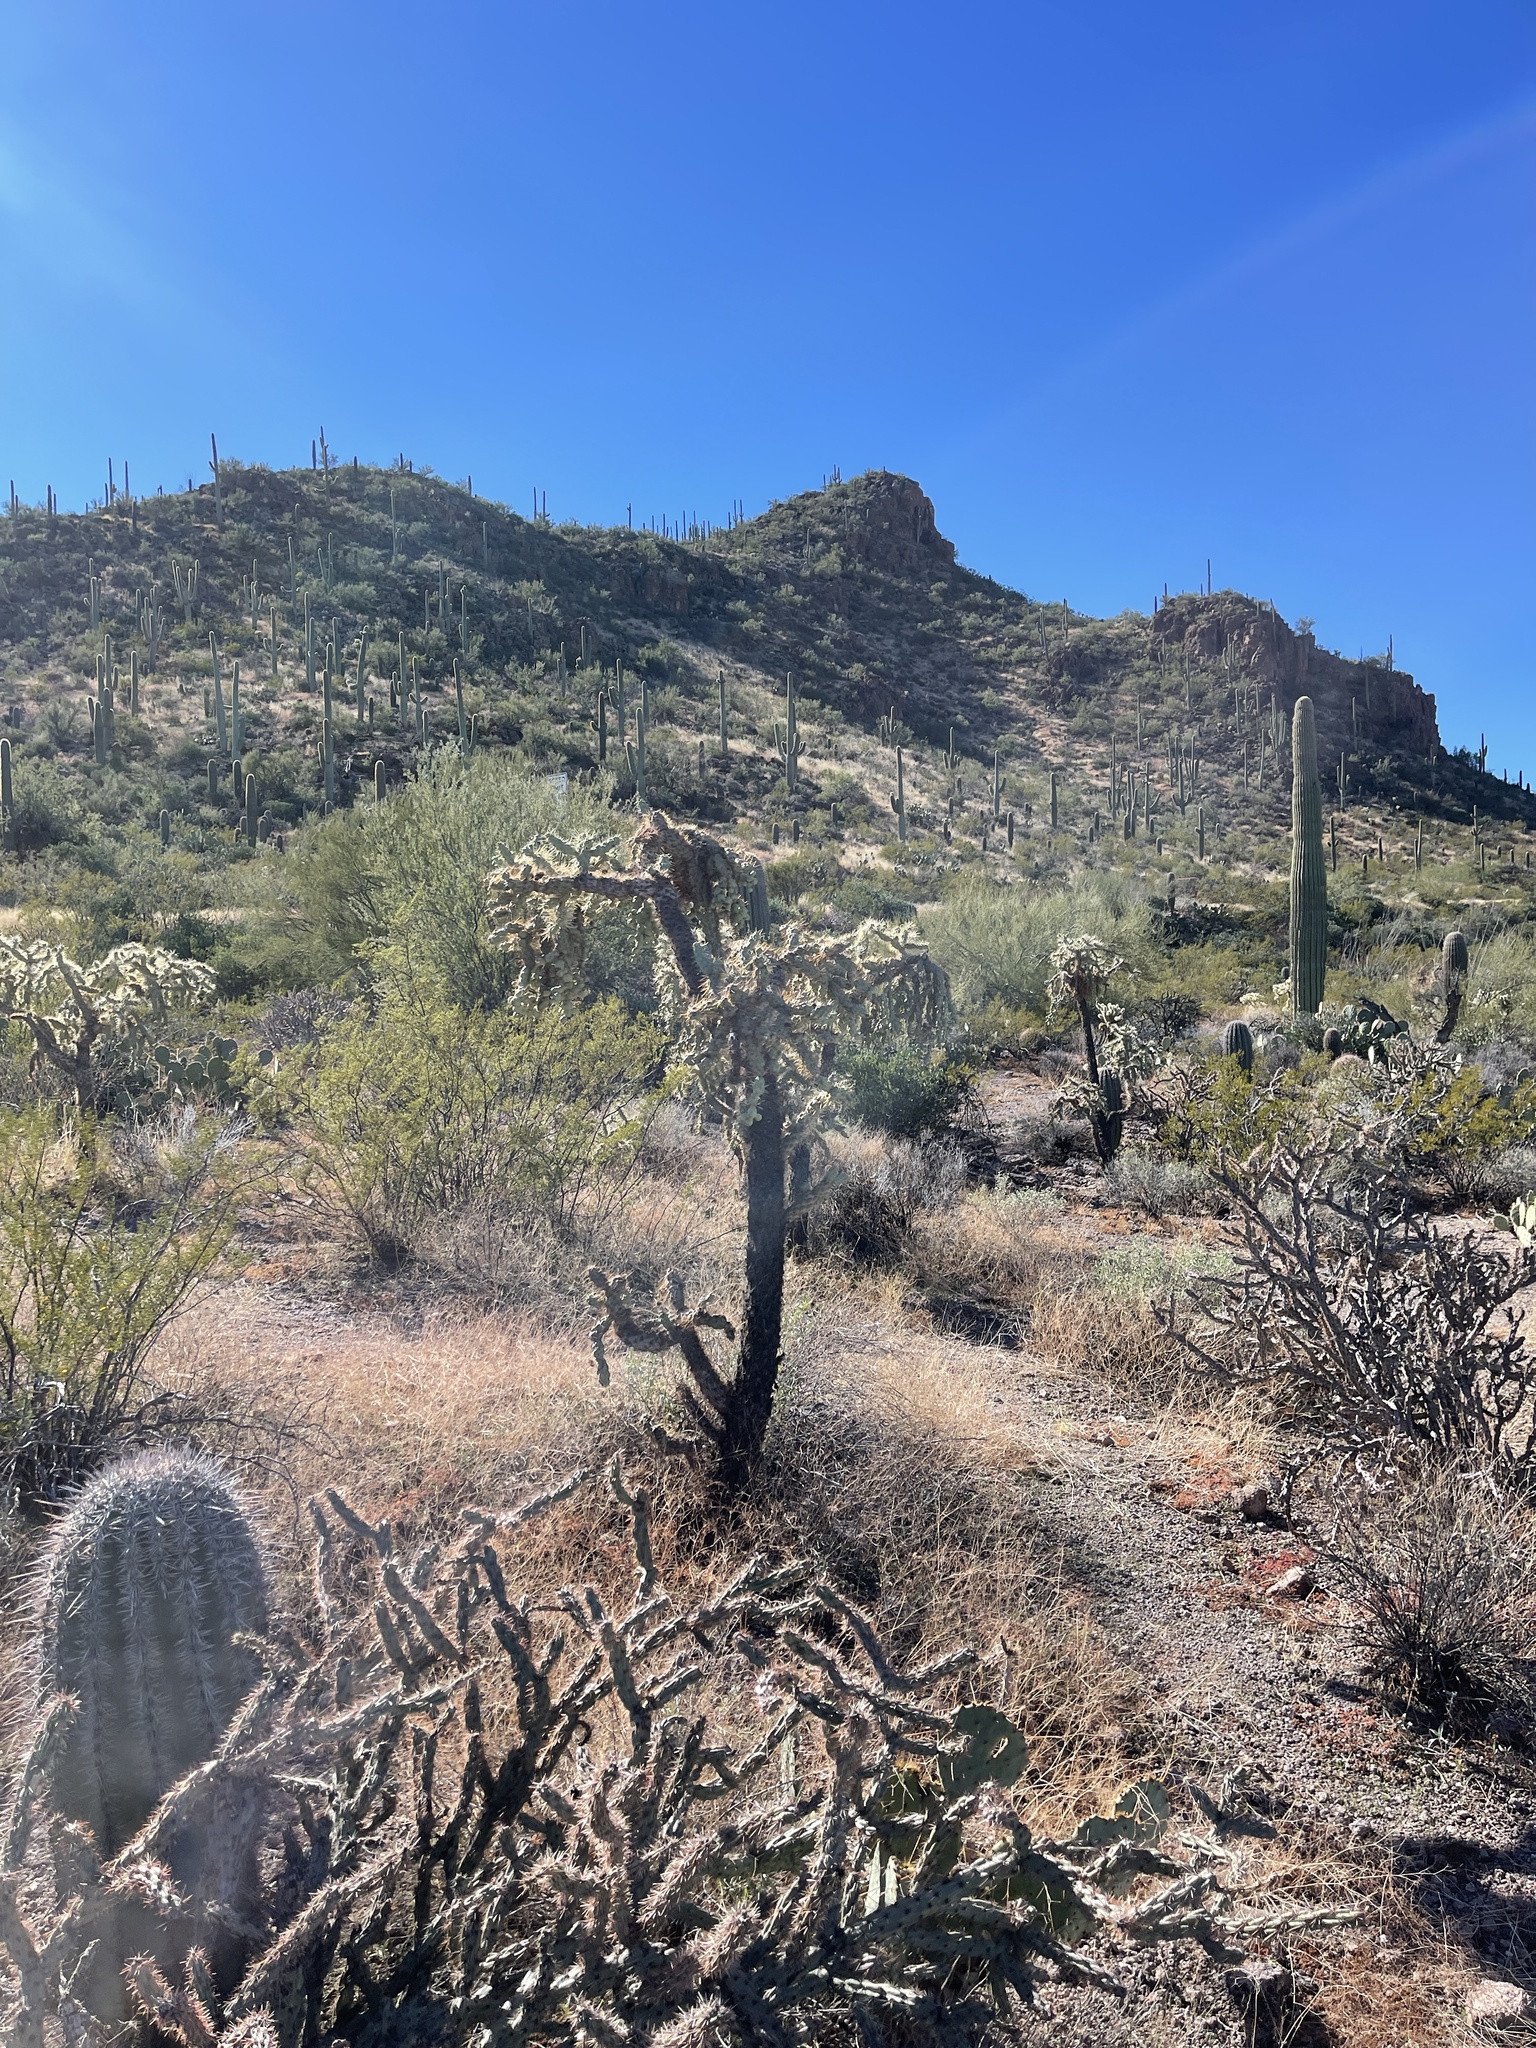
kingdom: Plantae
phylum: Tracheophyta
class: Magnoliopsida
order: Caryophyllales
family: Cactaceae
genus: Cylindropuntia
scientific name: Cylindropuntia fulgida
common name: Jumping cholla
